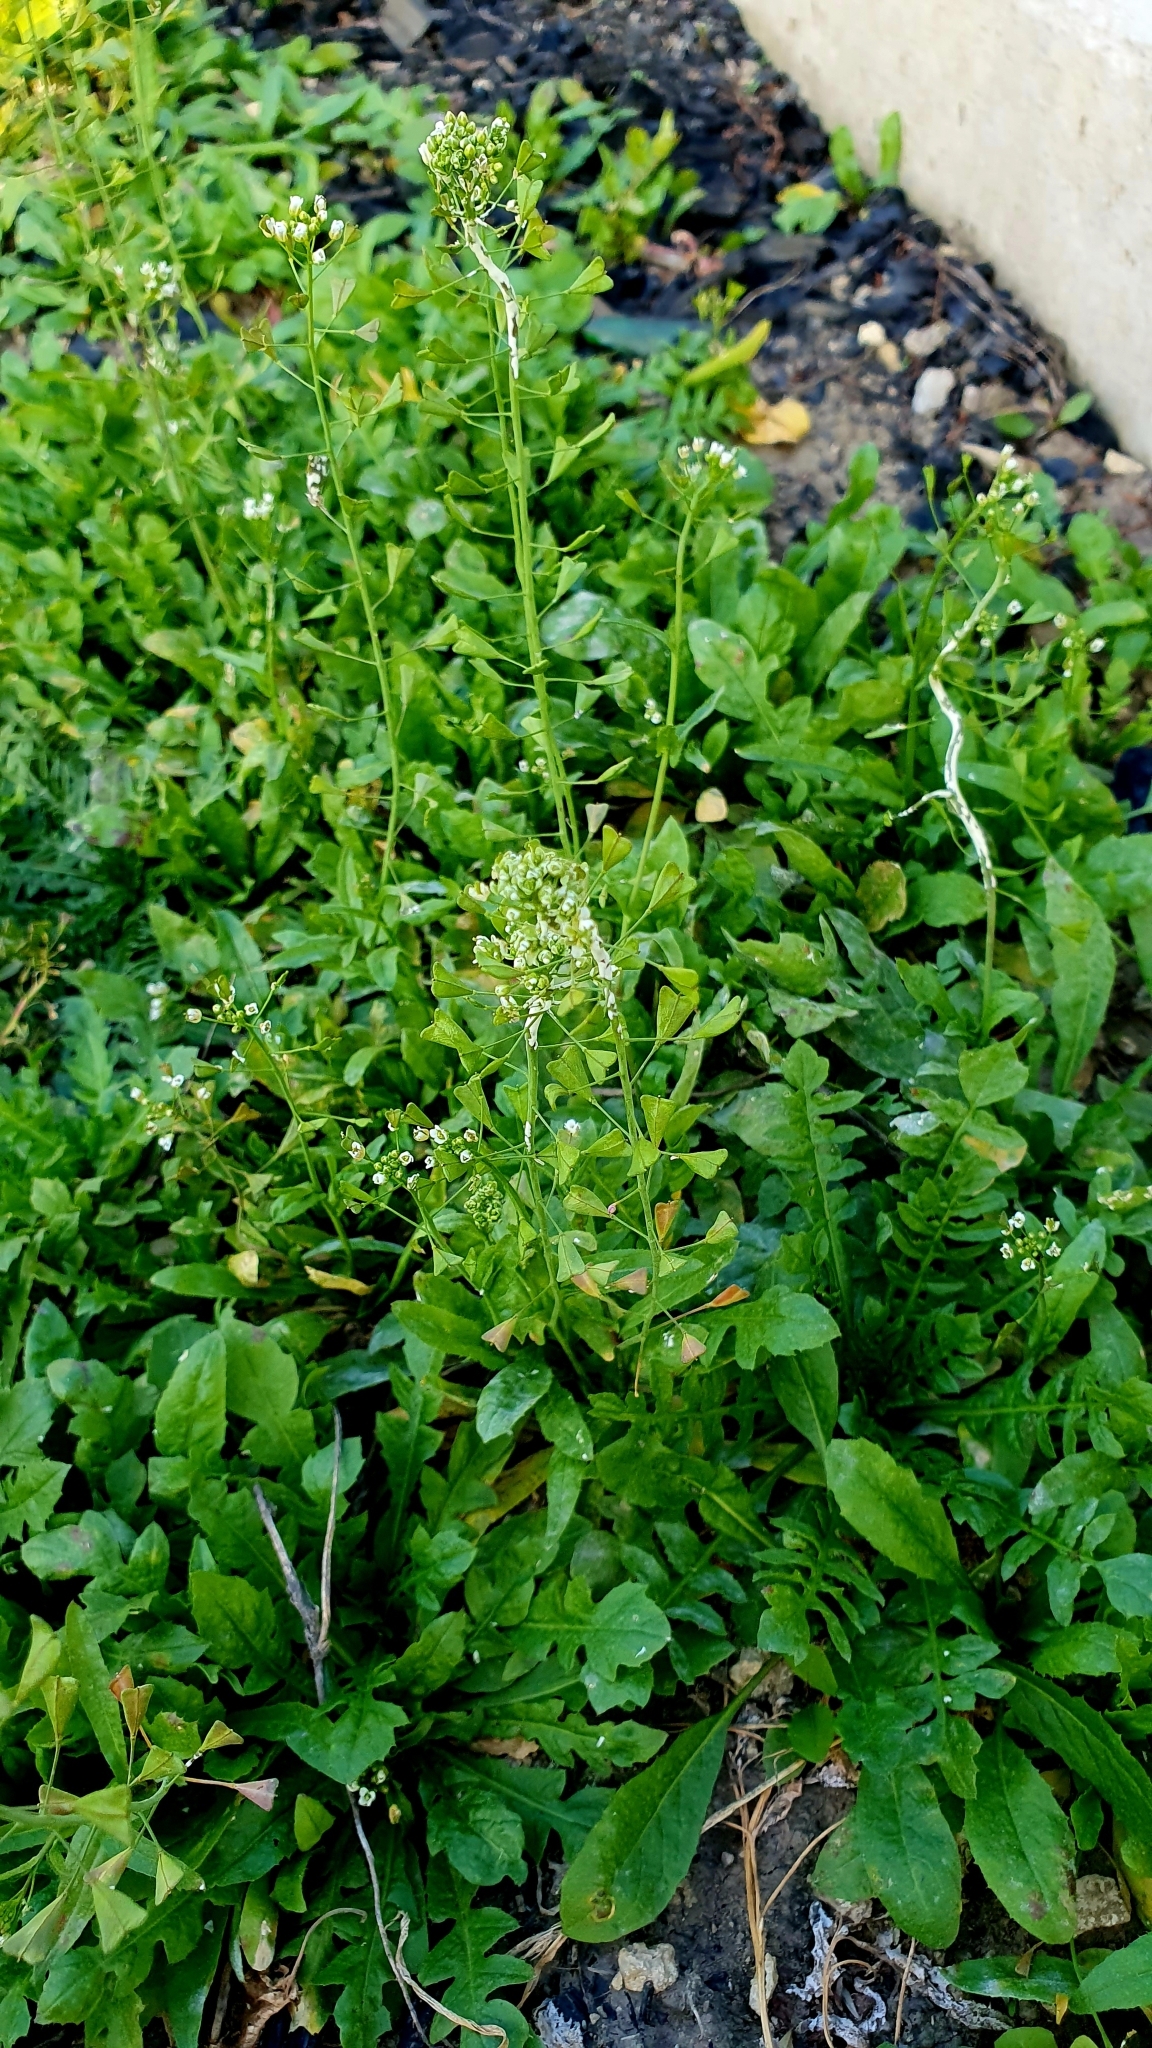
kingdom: Plantae
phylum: Tracheophyta
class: Magnoliopsida
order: Brassicales
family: Brassicaceae
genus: Capsella
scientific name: Capsella bursa-pastoris
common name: Shepherd's purse
